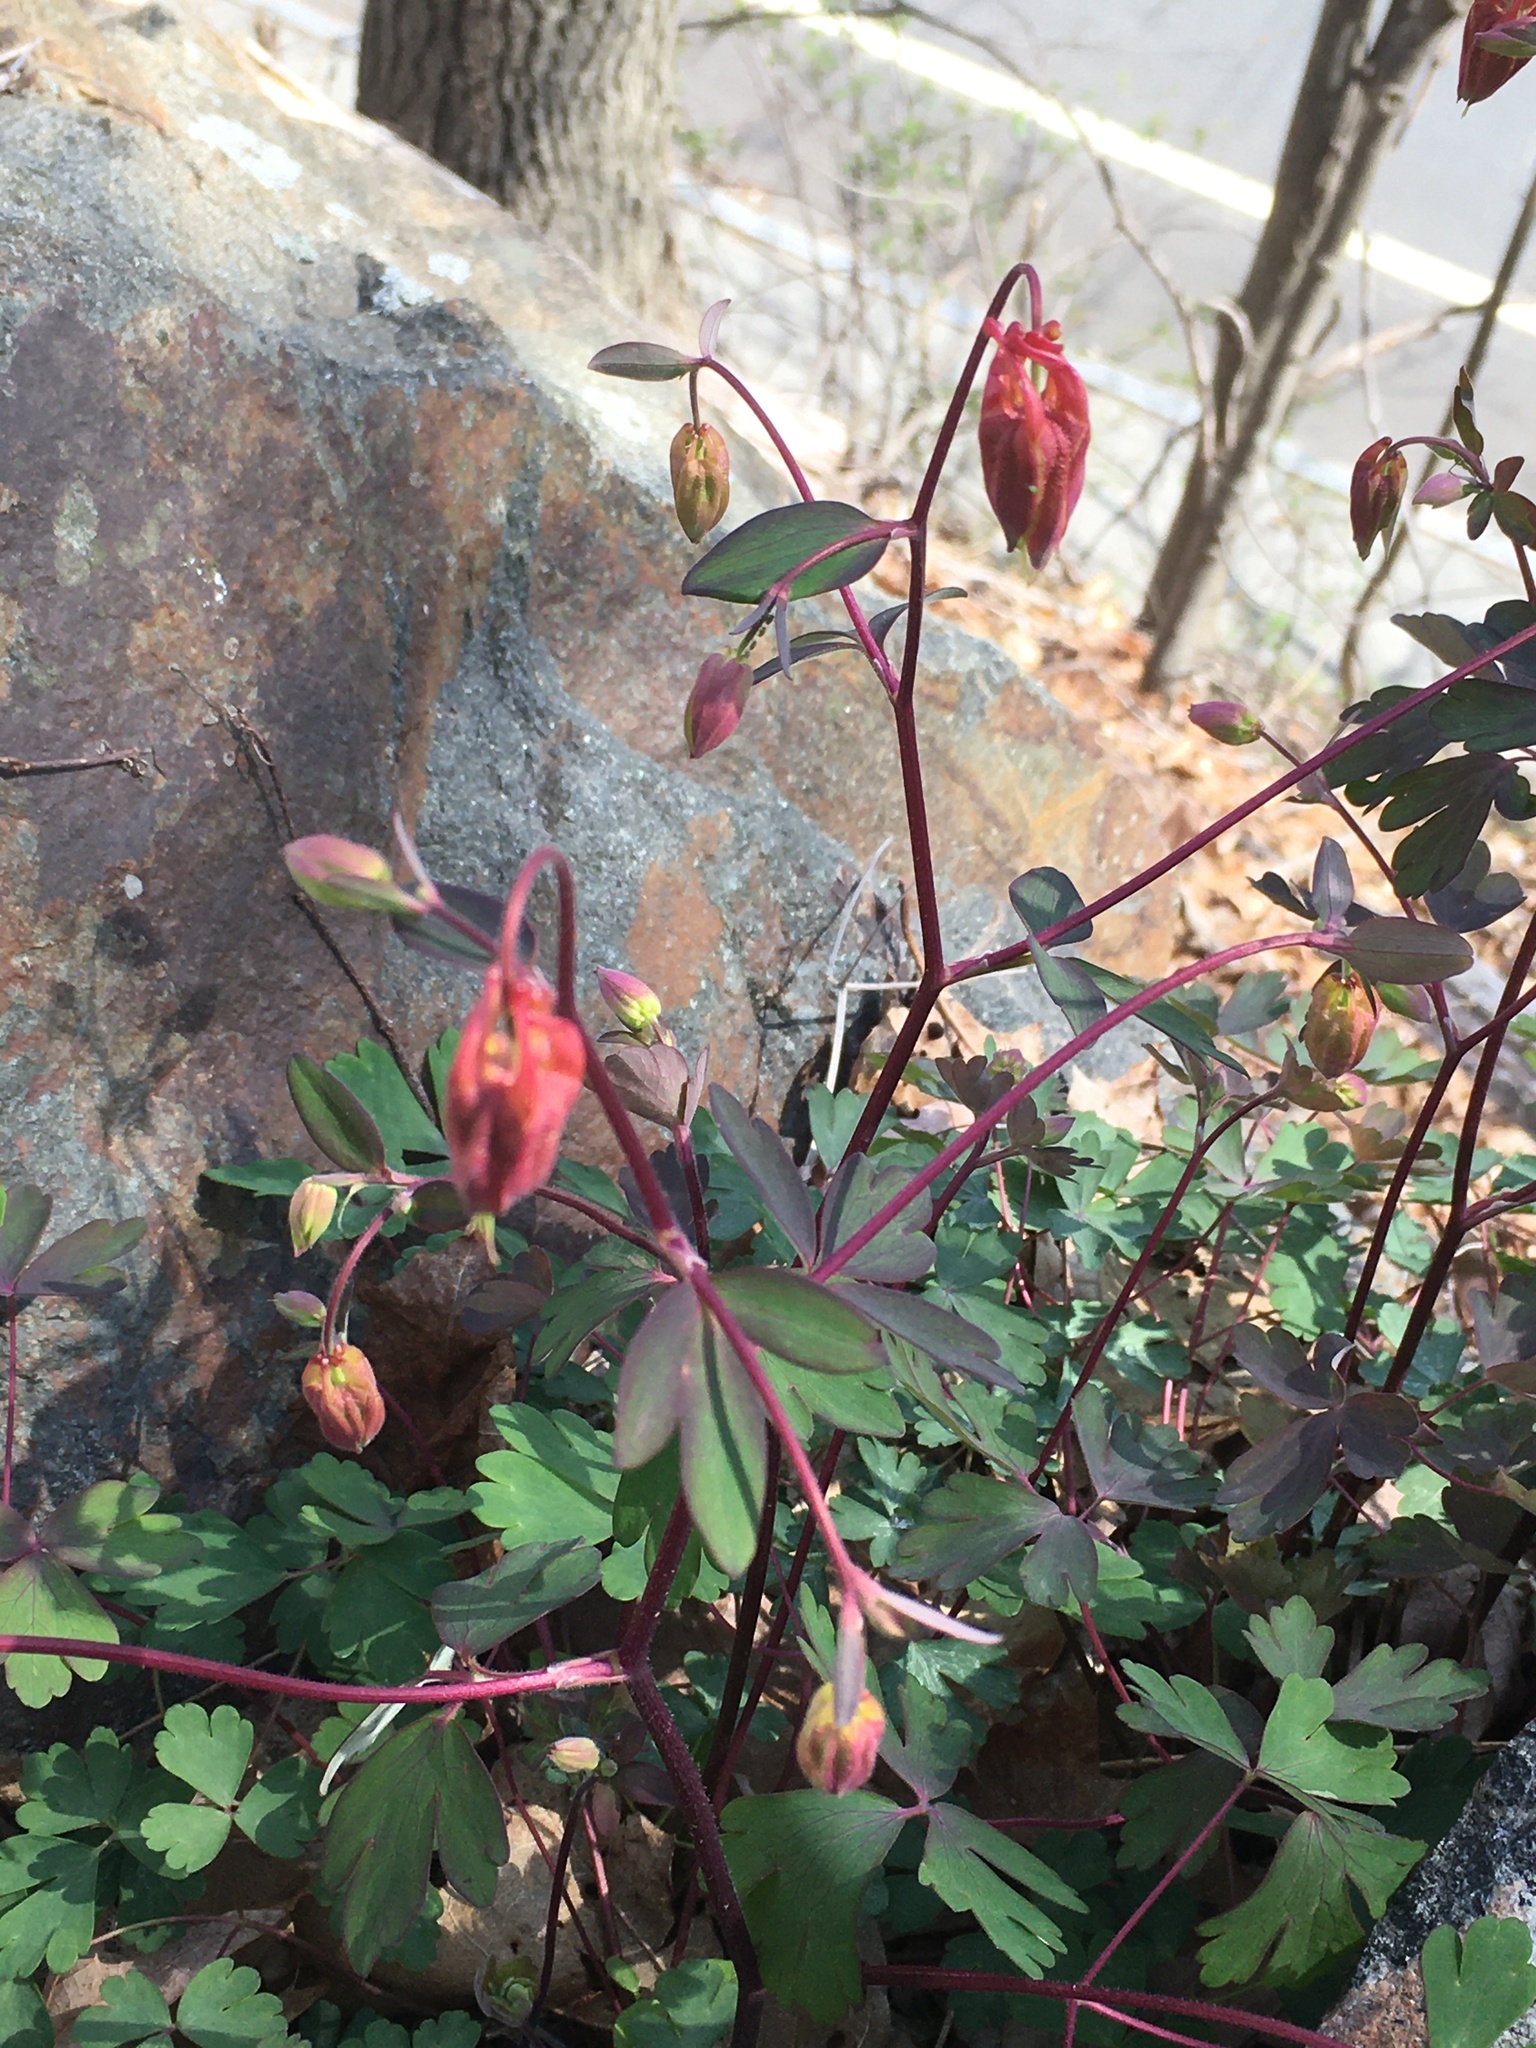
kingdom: Plantae
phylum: Tracheophyta
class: Magnoliopsida
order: Ranunculales
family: Ranunculaceae
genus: Aquilegia
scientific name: Aquilegia canadensis
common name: American columbine
